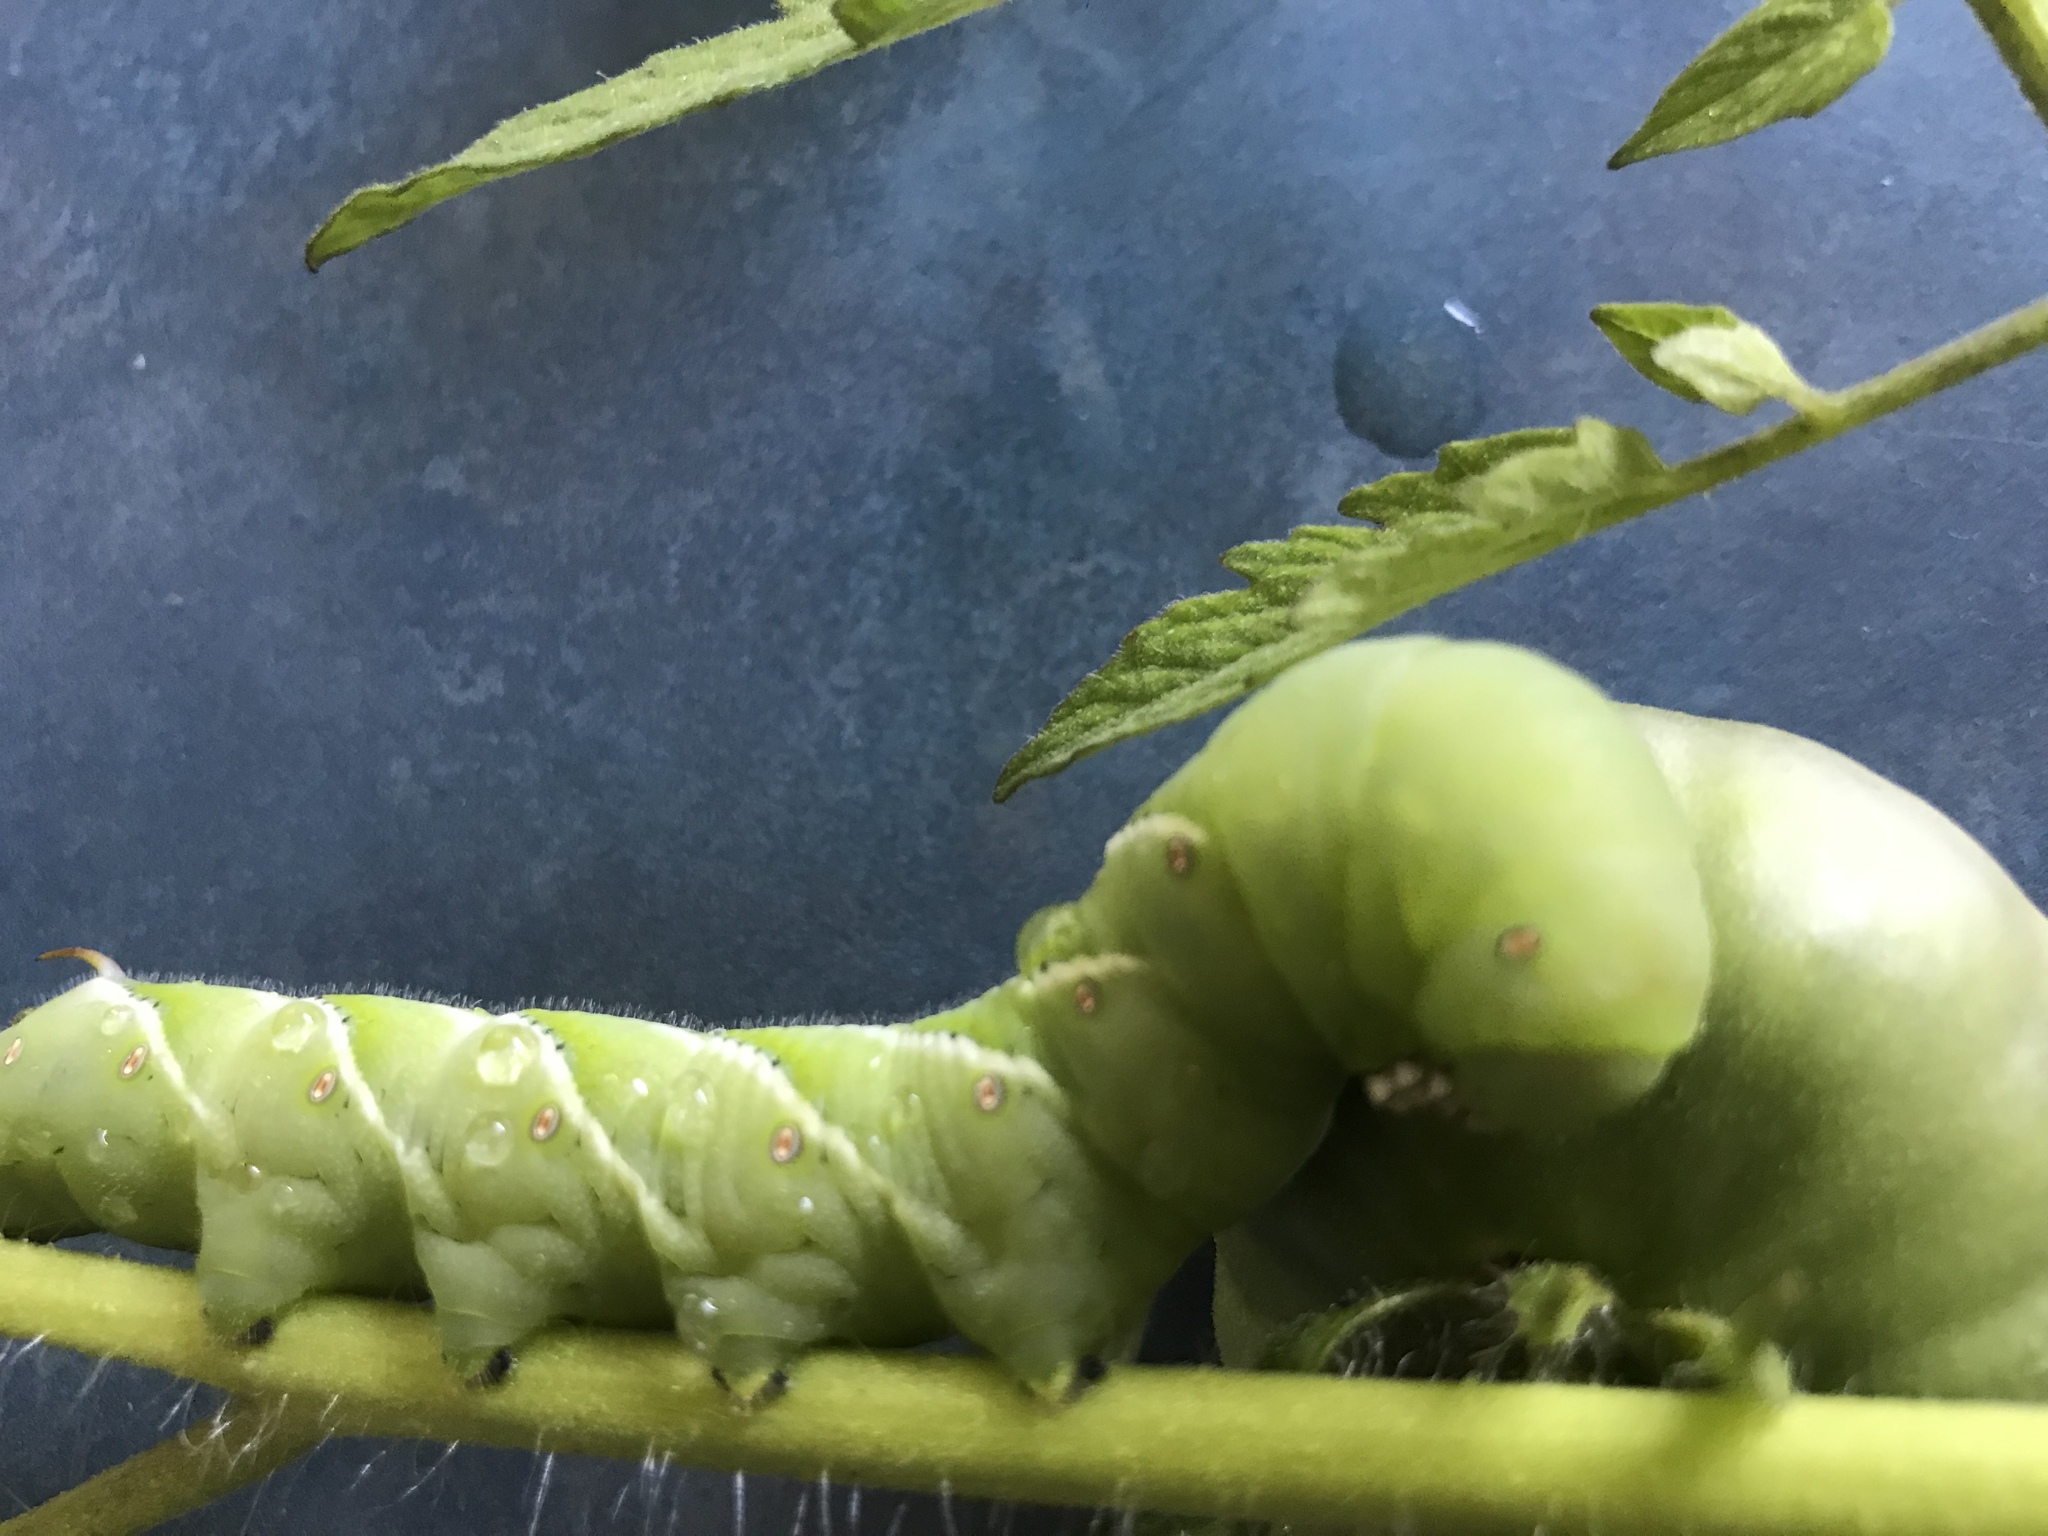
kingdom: Animalia
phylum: Arthropoda
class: Insecta
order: Lepidoptera
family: Sphingidae
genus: Manduca
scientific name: Manduca sexta
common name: Carolina sphinx
